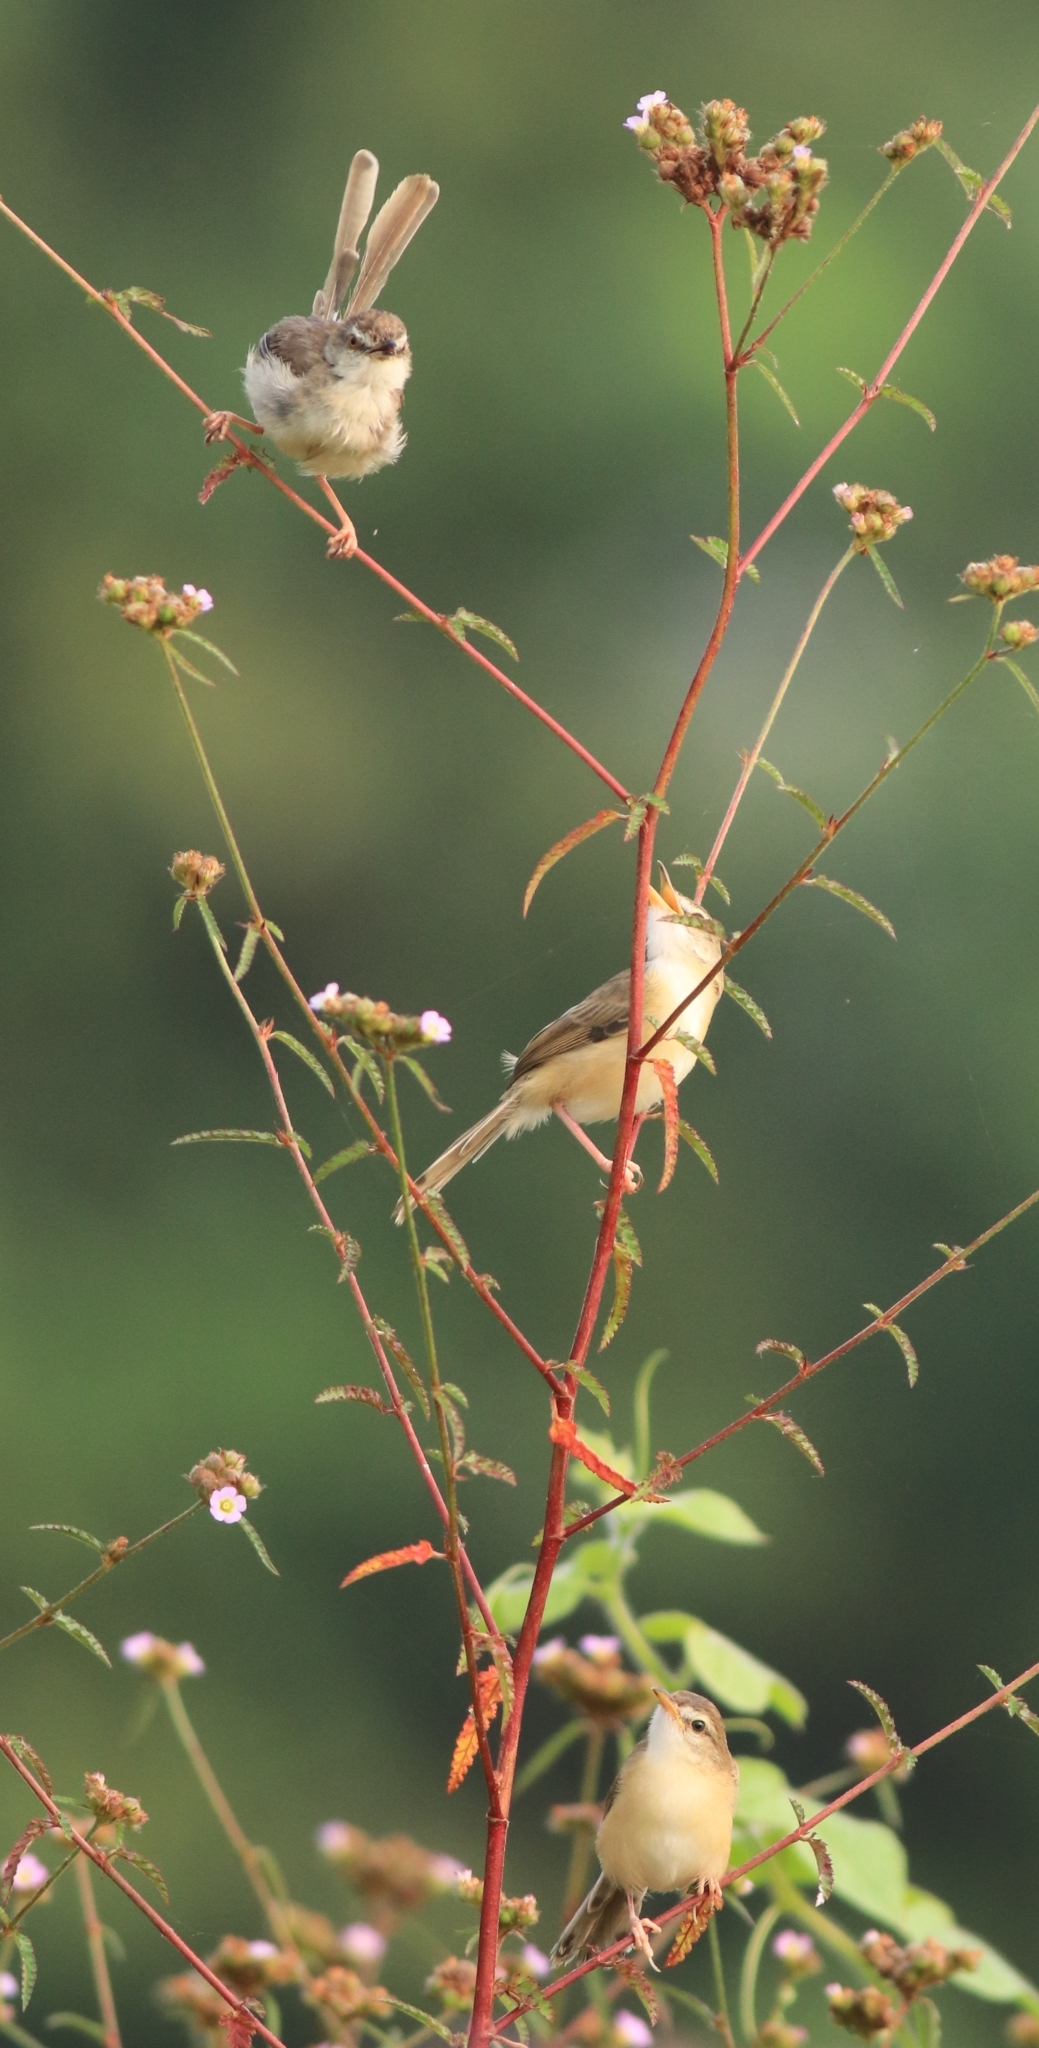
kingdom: Animalia
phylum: Chordata
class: Aves
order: Passeriformes
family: Cisticolidae
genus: Prinia
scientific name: Prinia inornata
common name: Plain prinia
